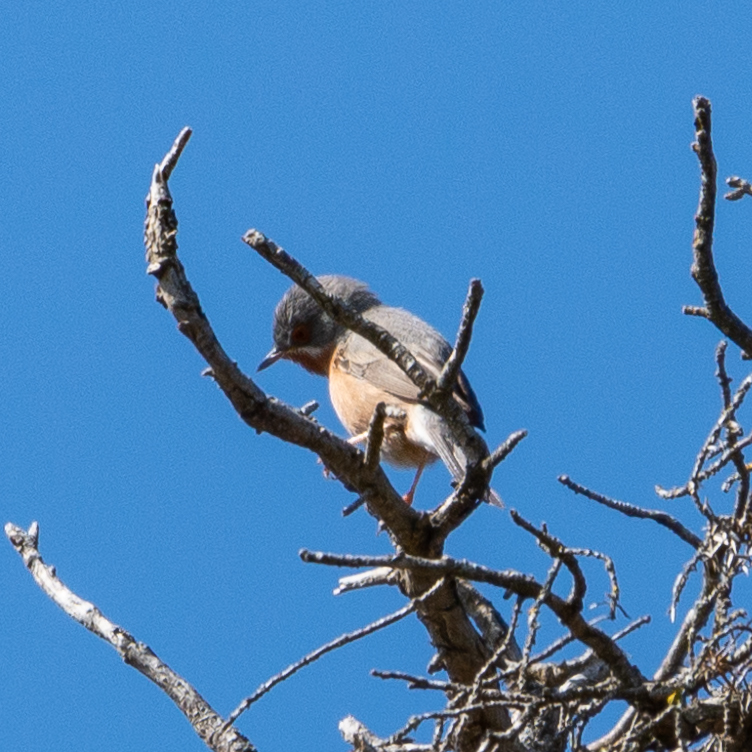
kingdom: Animalia
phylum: Chordata
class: Aves
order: Passeriformes
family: Sylviidae
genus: Curruca
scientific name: Curruca iberiae
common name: Western subalpine warbler
